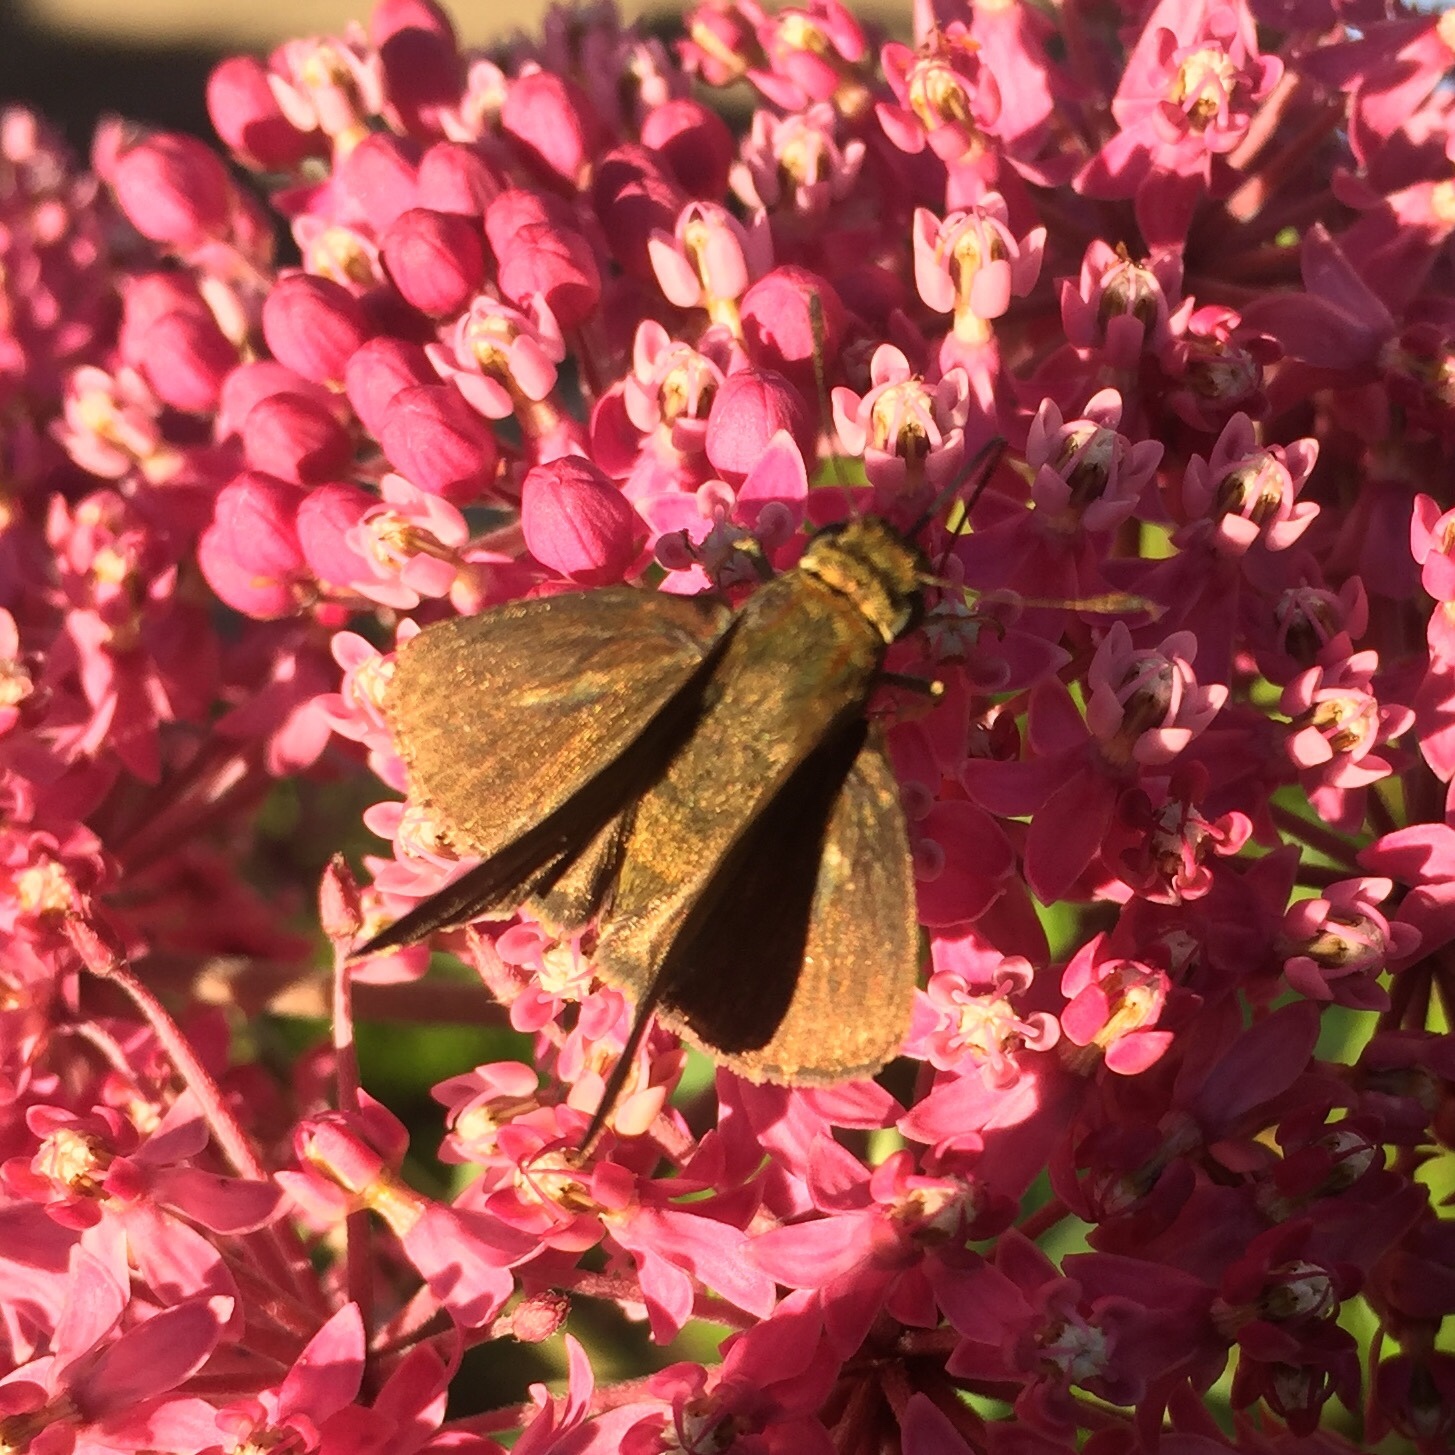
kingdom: Animalia
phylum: Arthropoda
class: Insecta
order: Lepidoptera
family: Hesperiidae
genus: Euphyes
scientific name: Euphyes vestris
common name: Dun skipper
